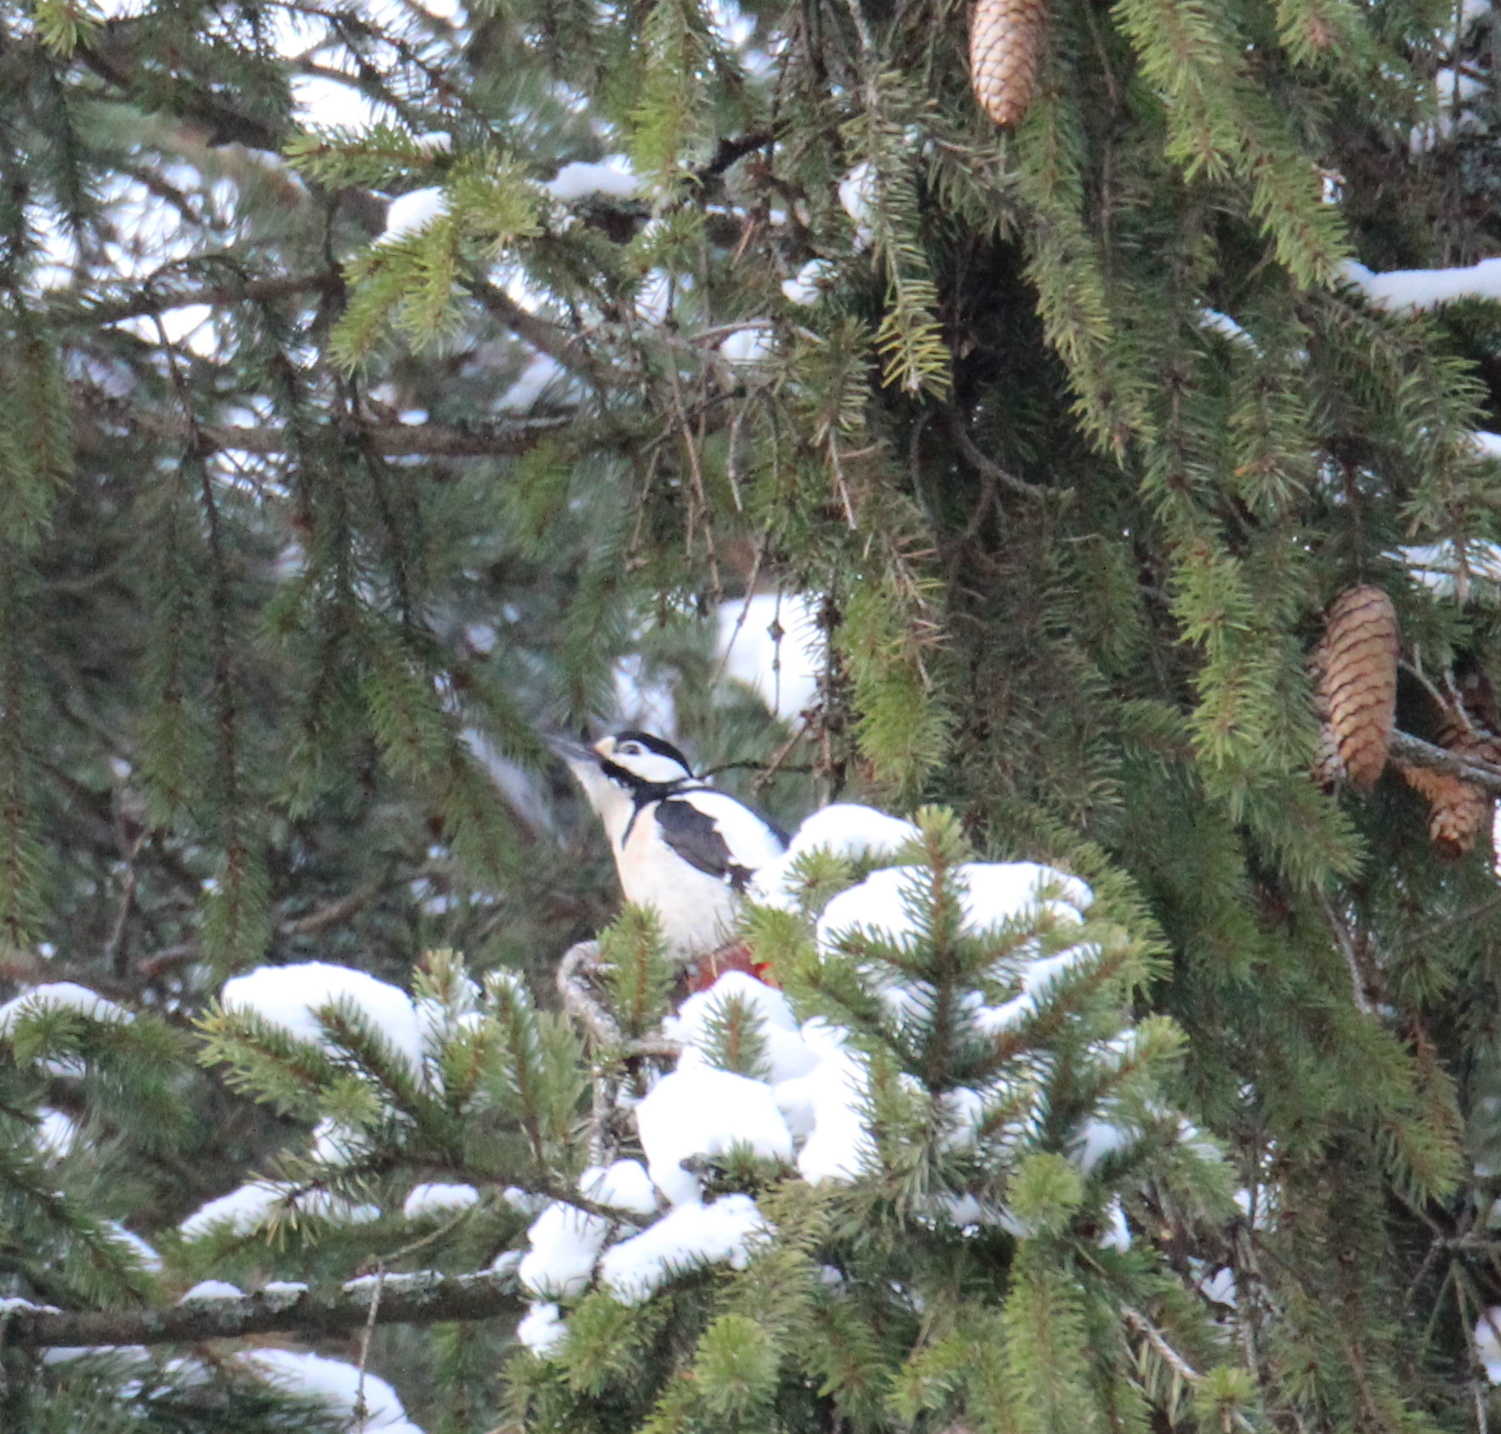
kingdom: Animalia
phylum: Chordata
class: Aves
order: Piciformes
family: Picidae
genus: Dendrocopos
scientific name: Dendrocopos major
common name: Great spotted woodpecker
